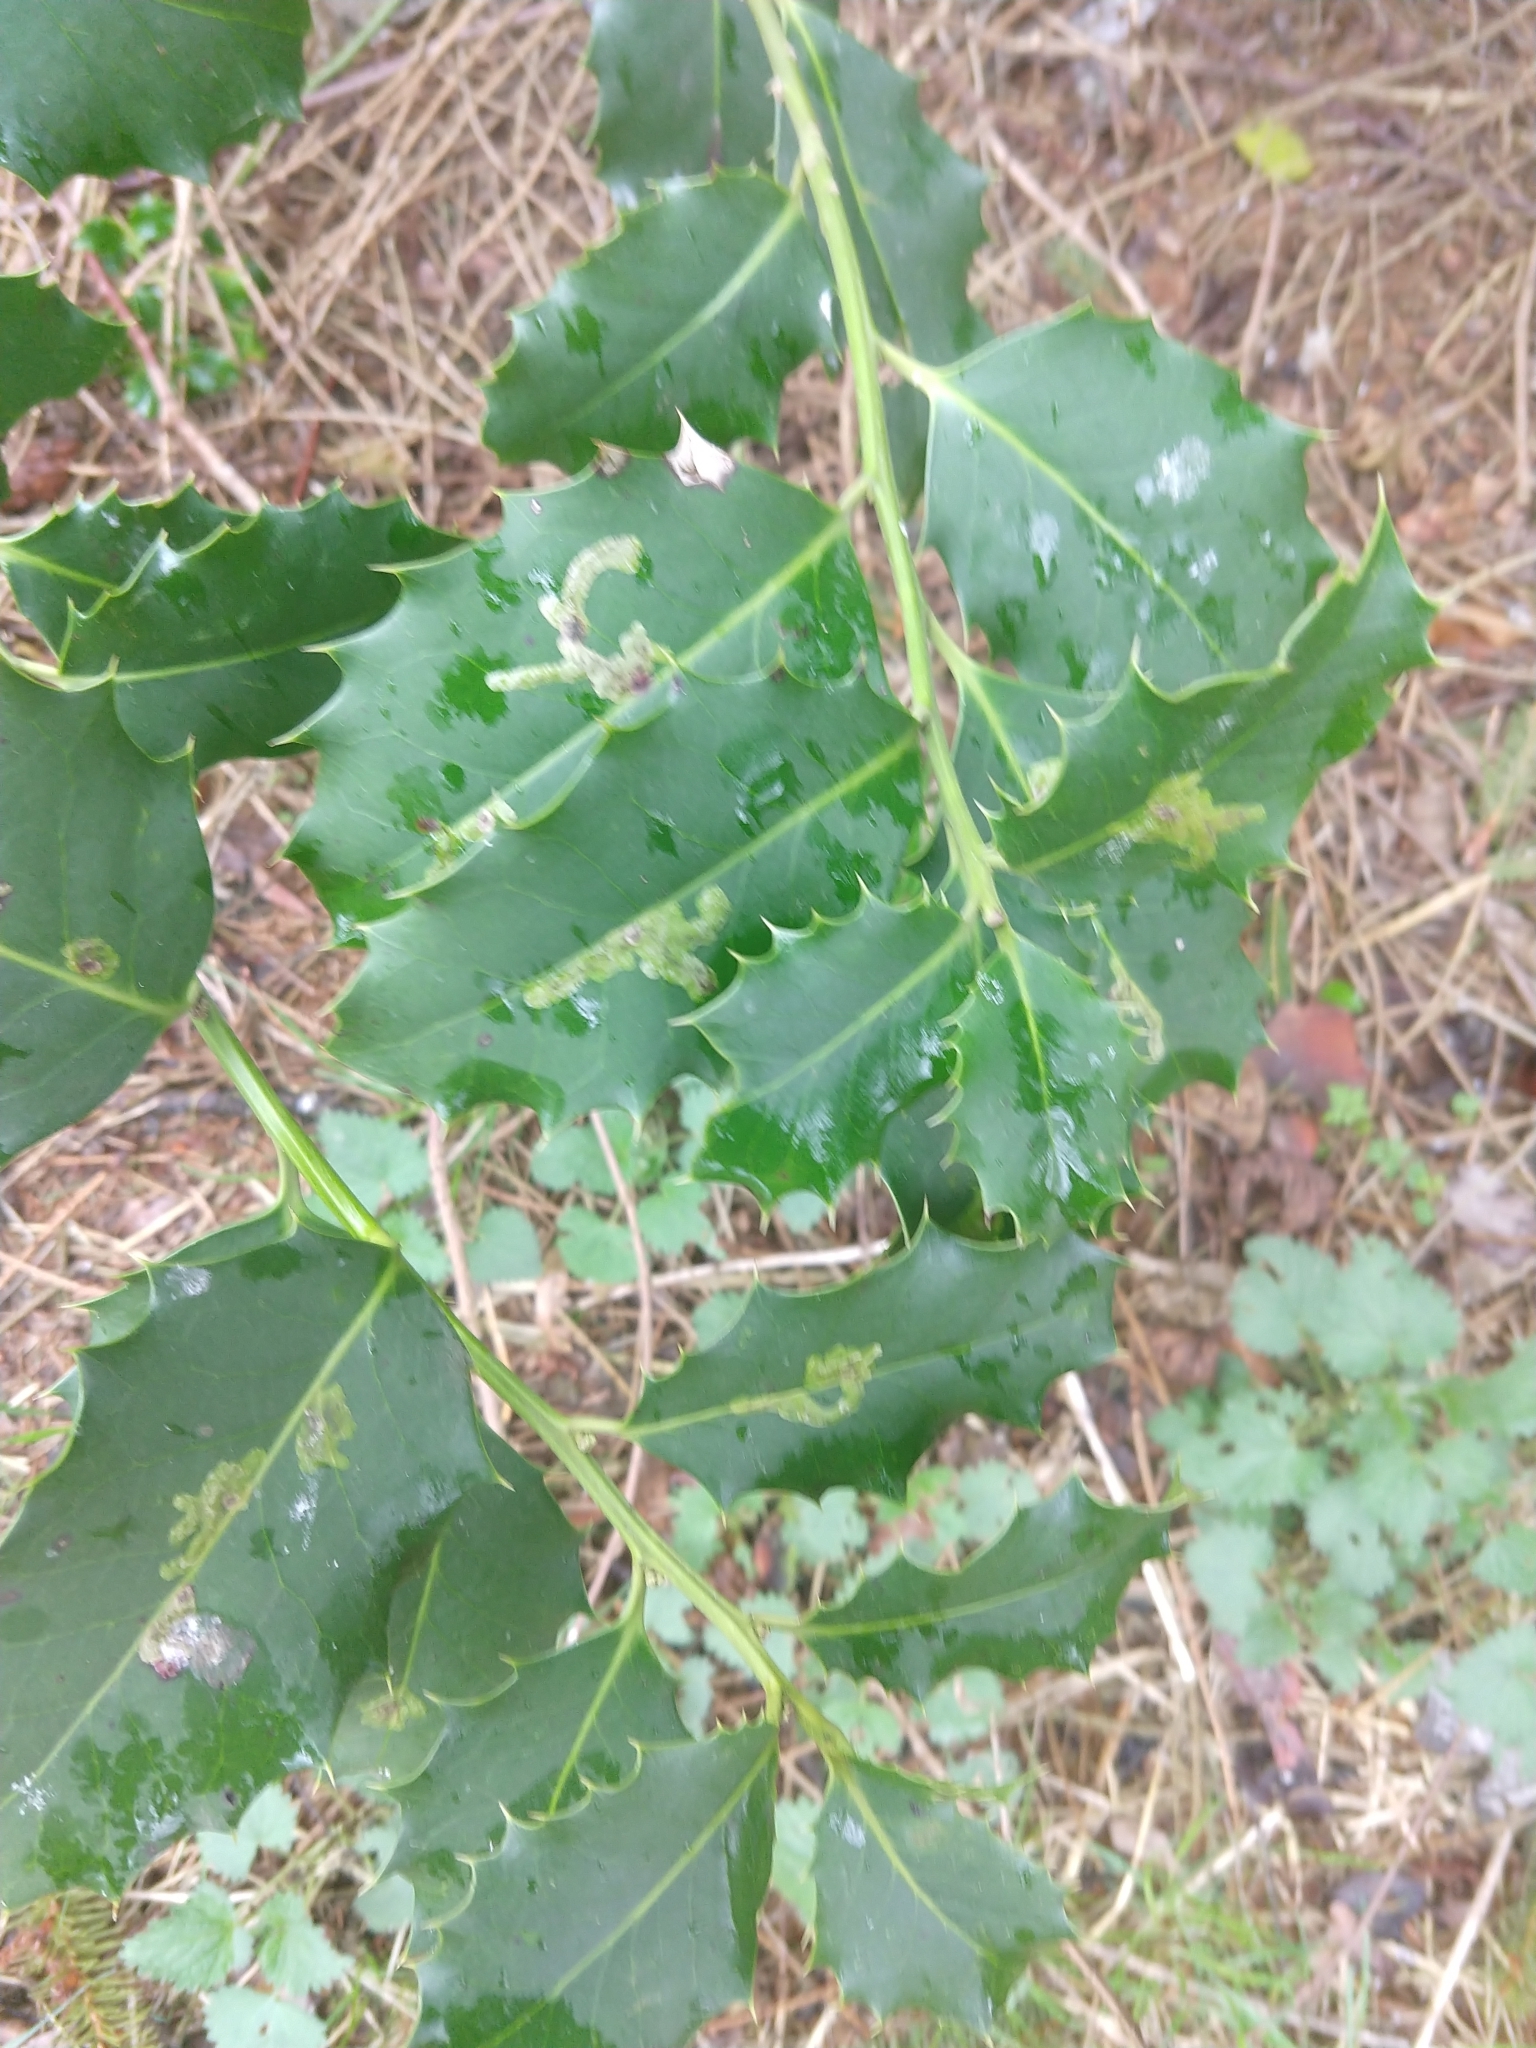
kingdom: Animalia
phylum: Arthropoda
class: Insecta
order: Diptera
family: Agromyzidae
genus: Phytomyza
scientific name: Phytomyza ilicis
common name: Holly leafminer
